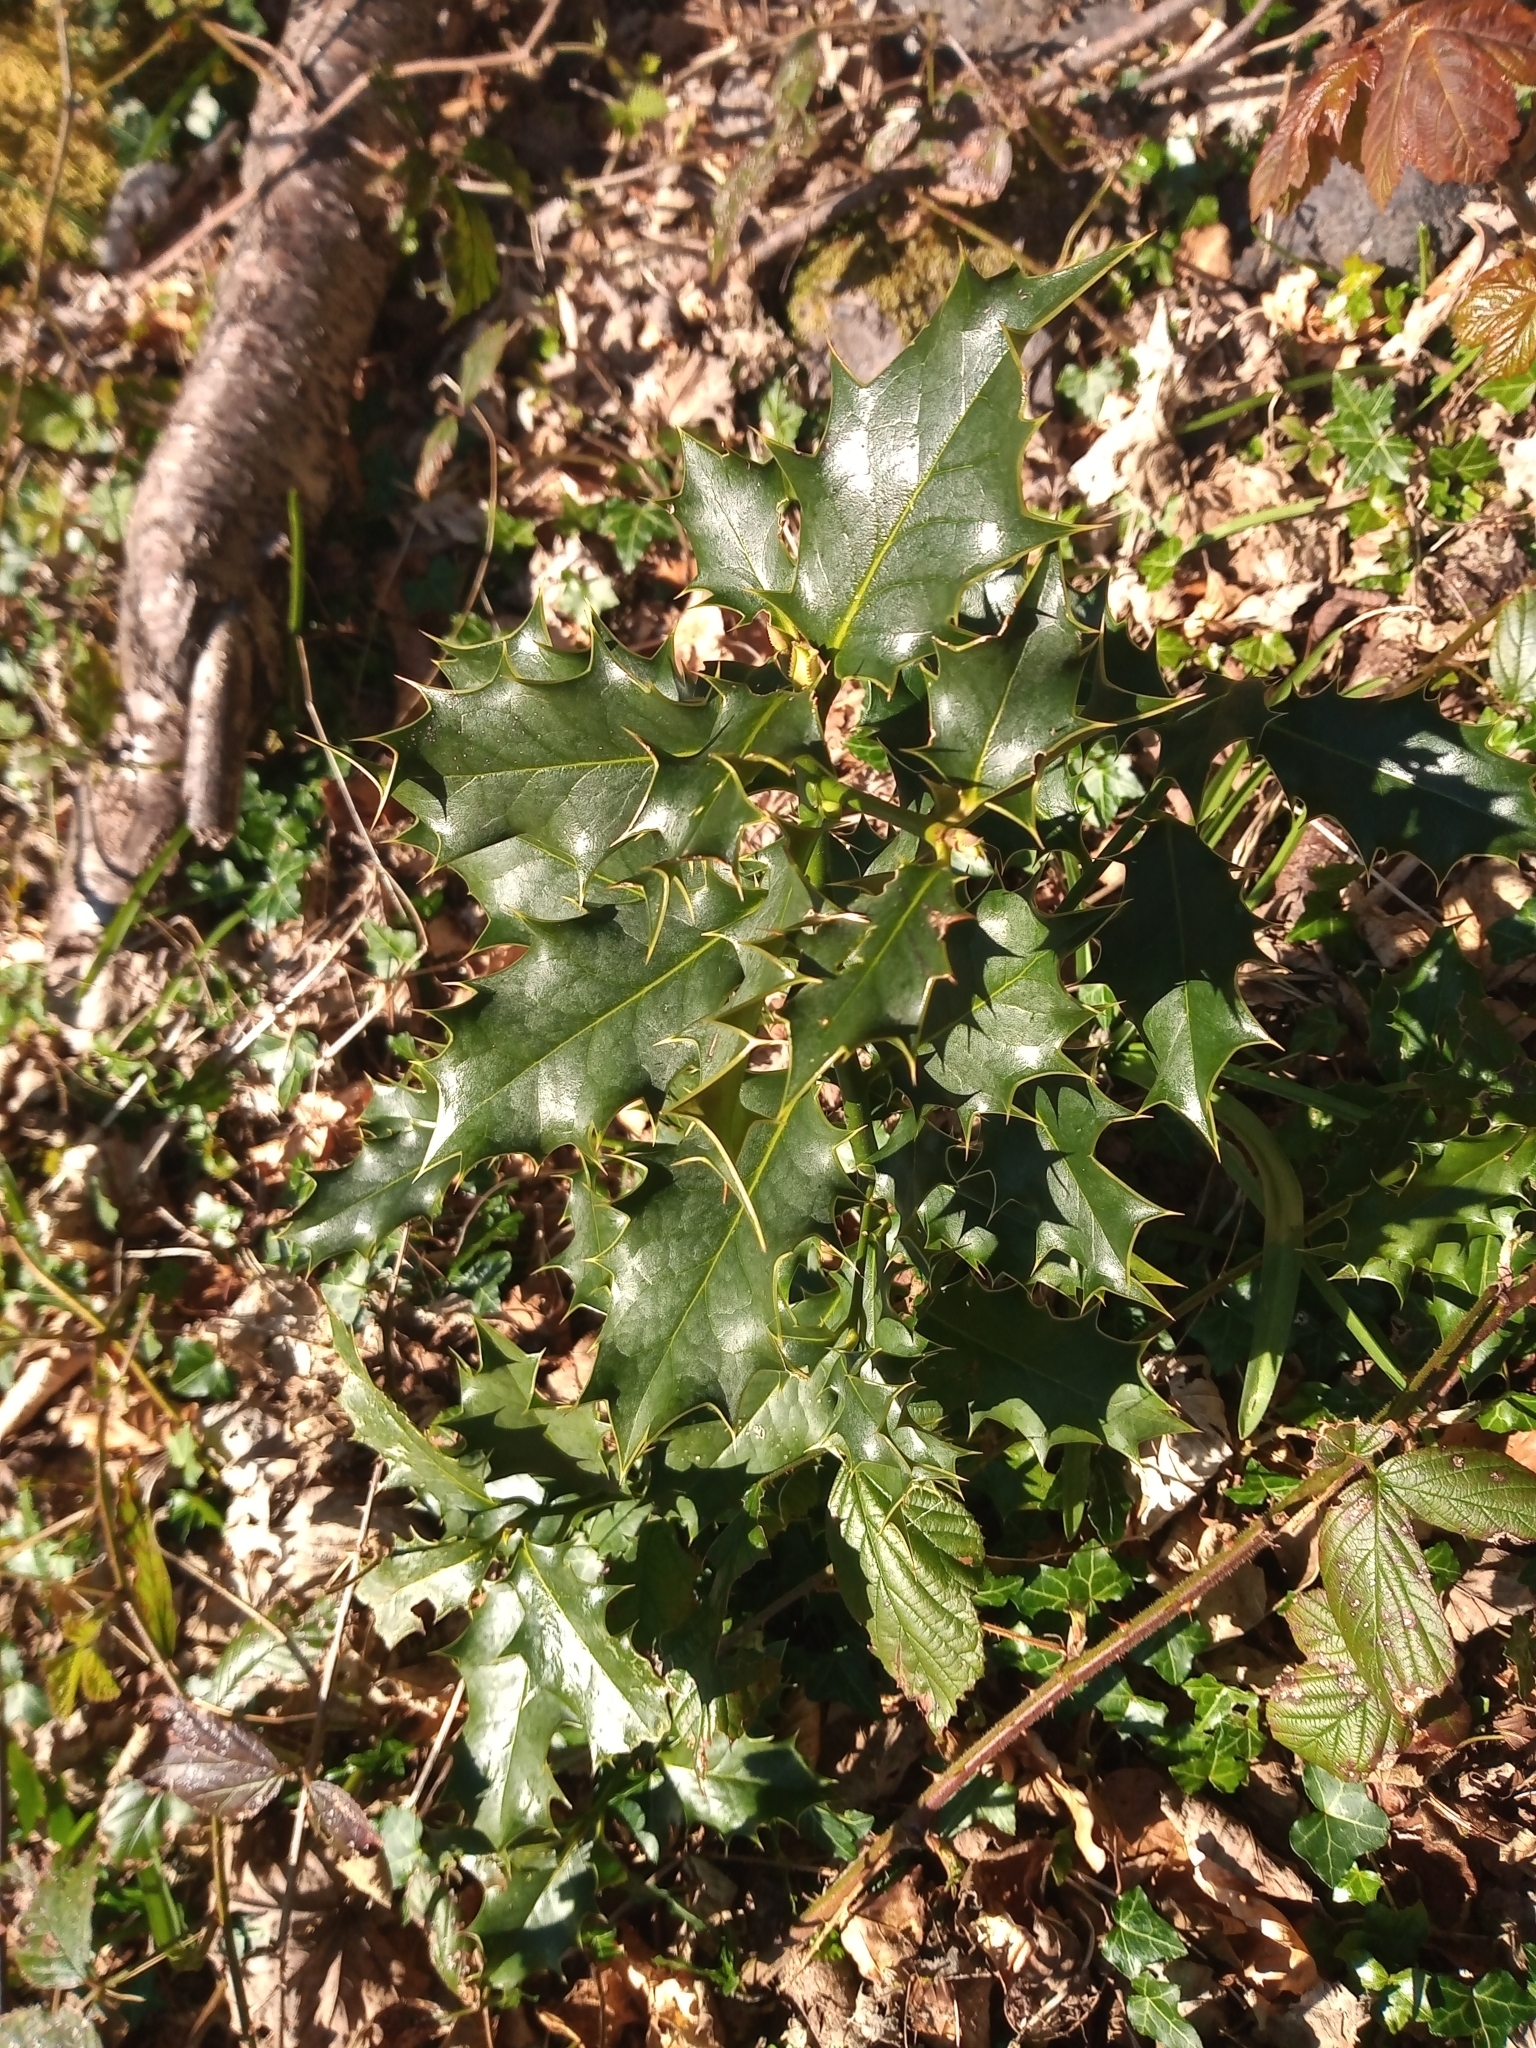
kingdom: Plantae
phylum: Tracheophyta
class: Magnoliopsida
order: Aquifoliales
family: Aquifoliaceae
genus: Ilex
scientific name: Ilex aquifolium
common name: English holly
